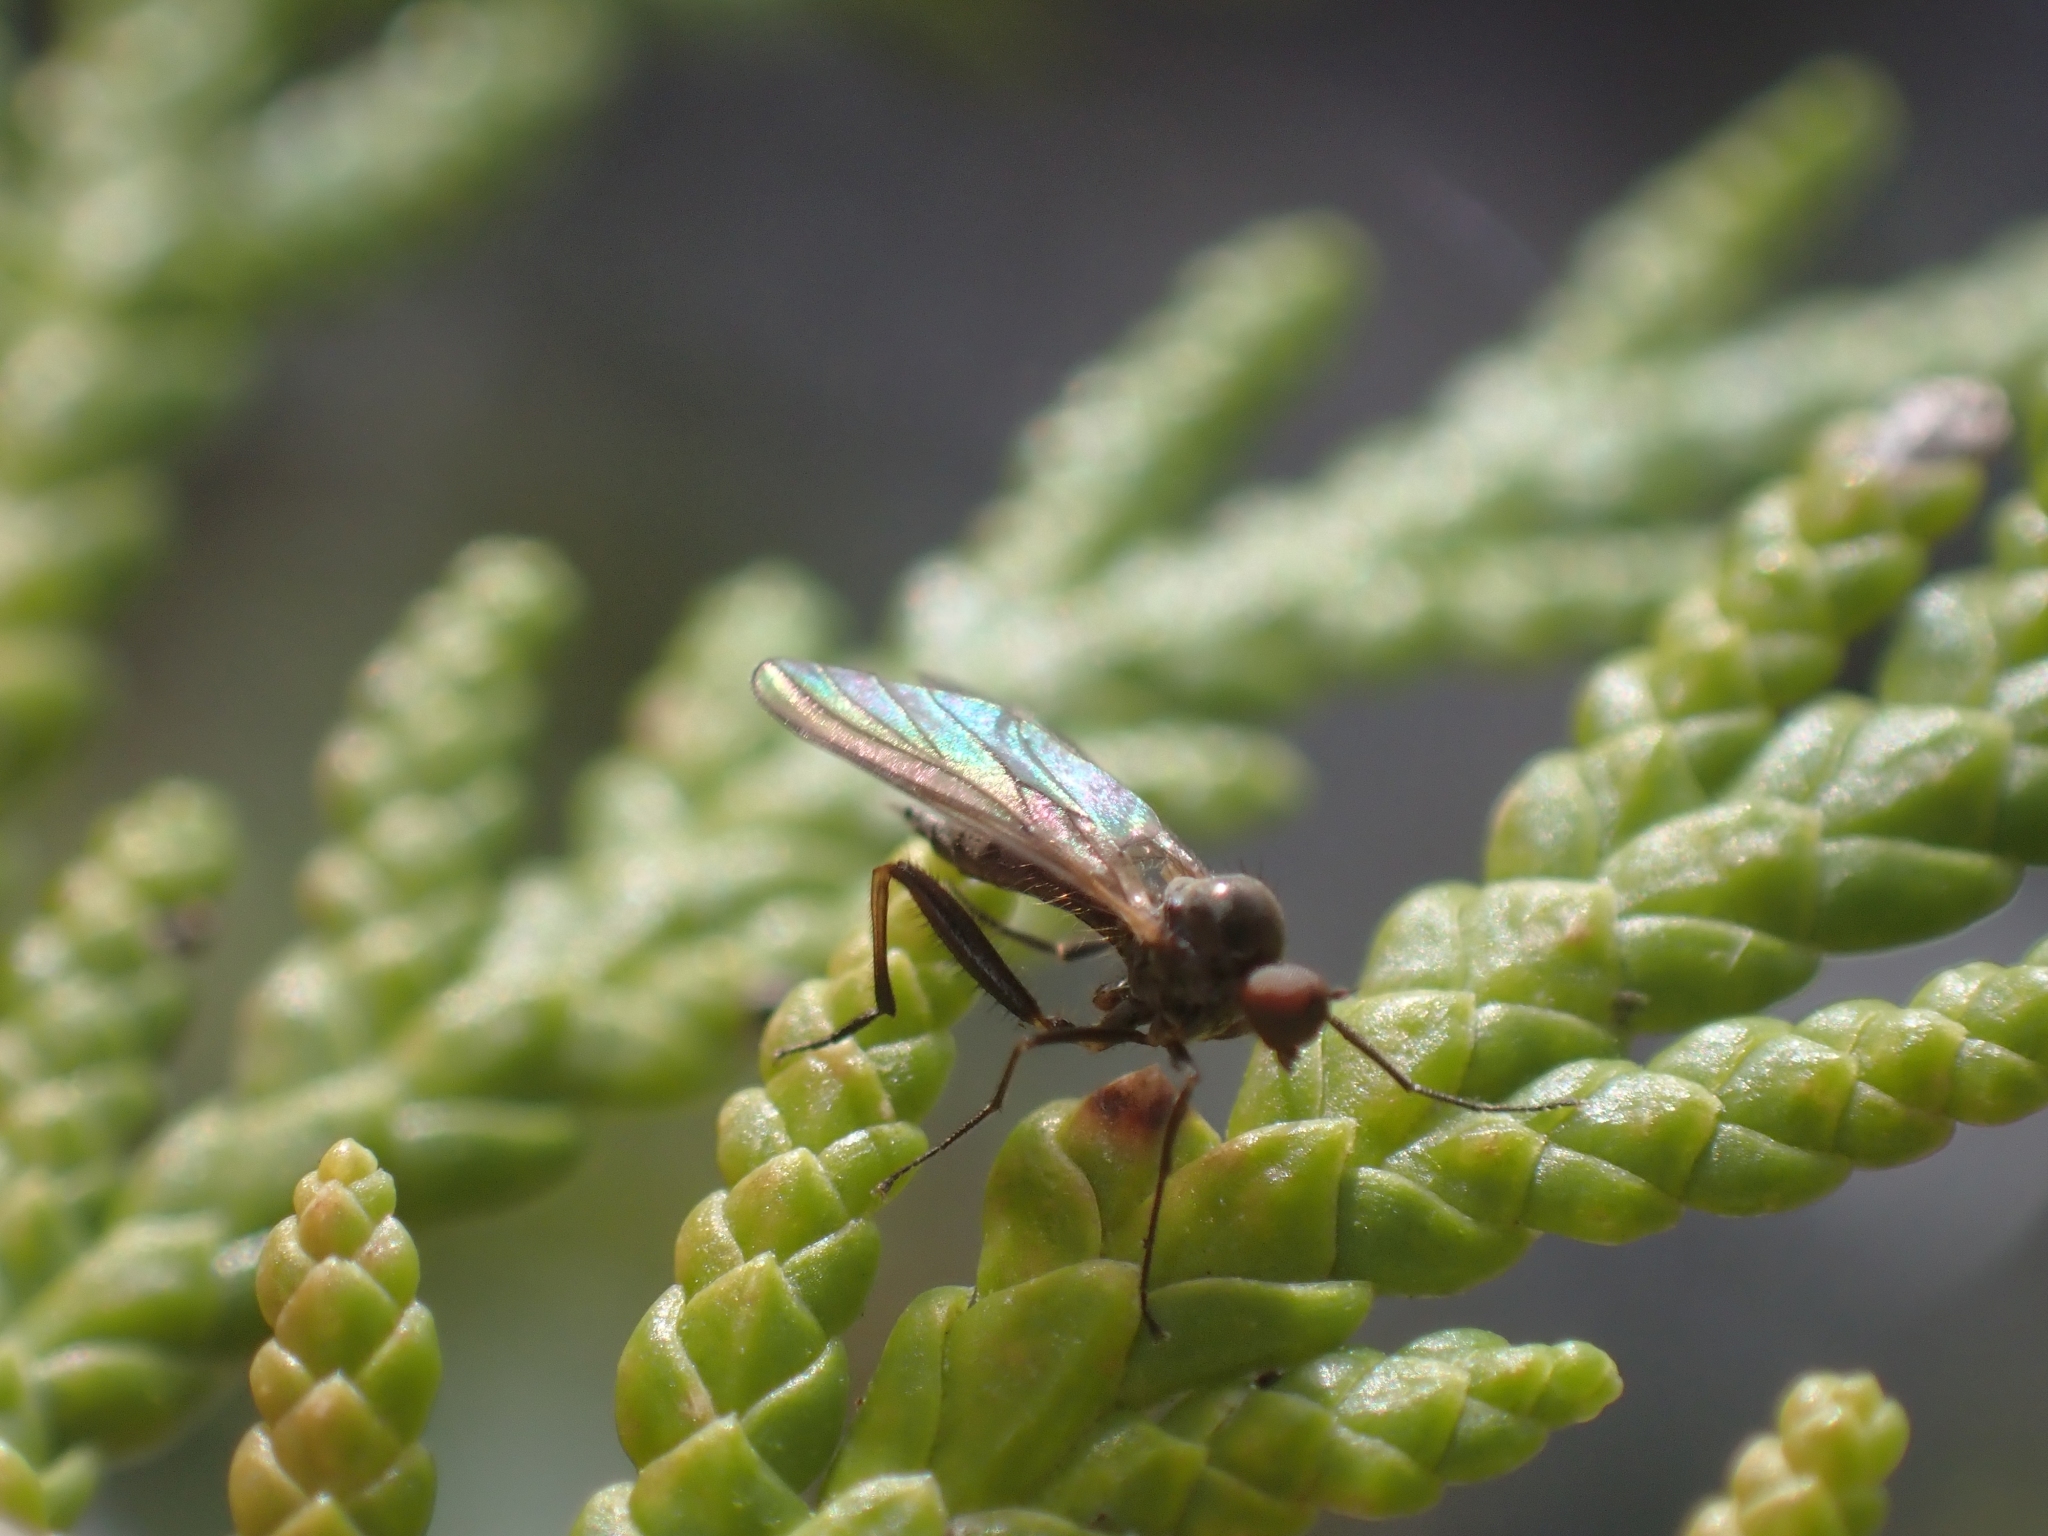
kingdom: Animalia
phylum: Arthropoda
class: Insecta
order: Diptera
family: Hybotidae
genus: Hoplocyrtoma
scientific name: Hoplocyrtoma procera
